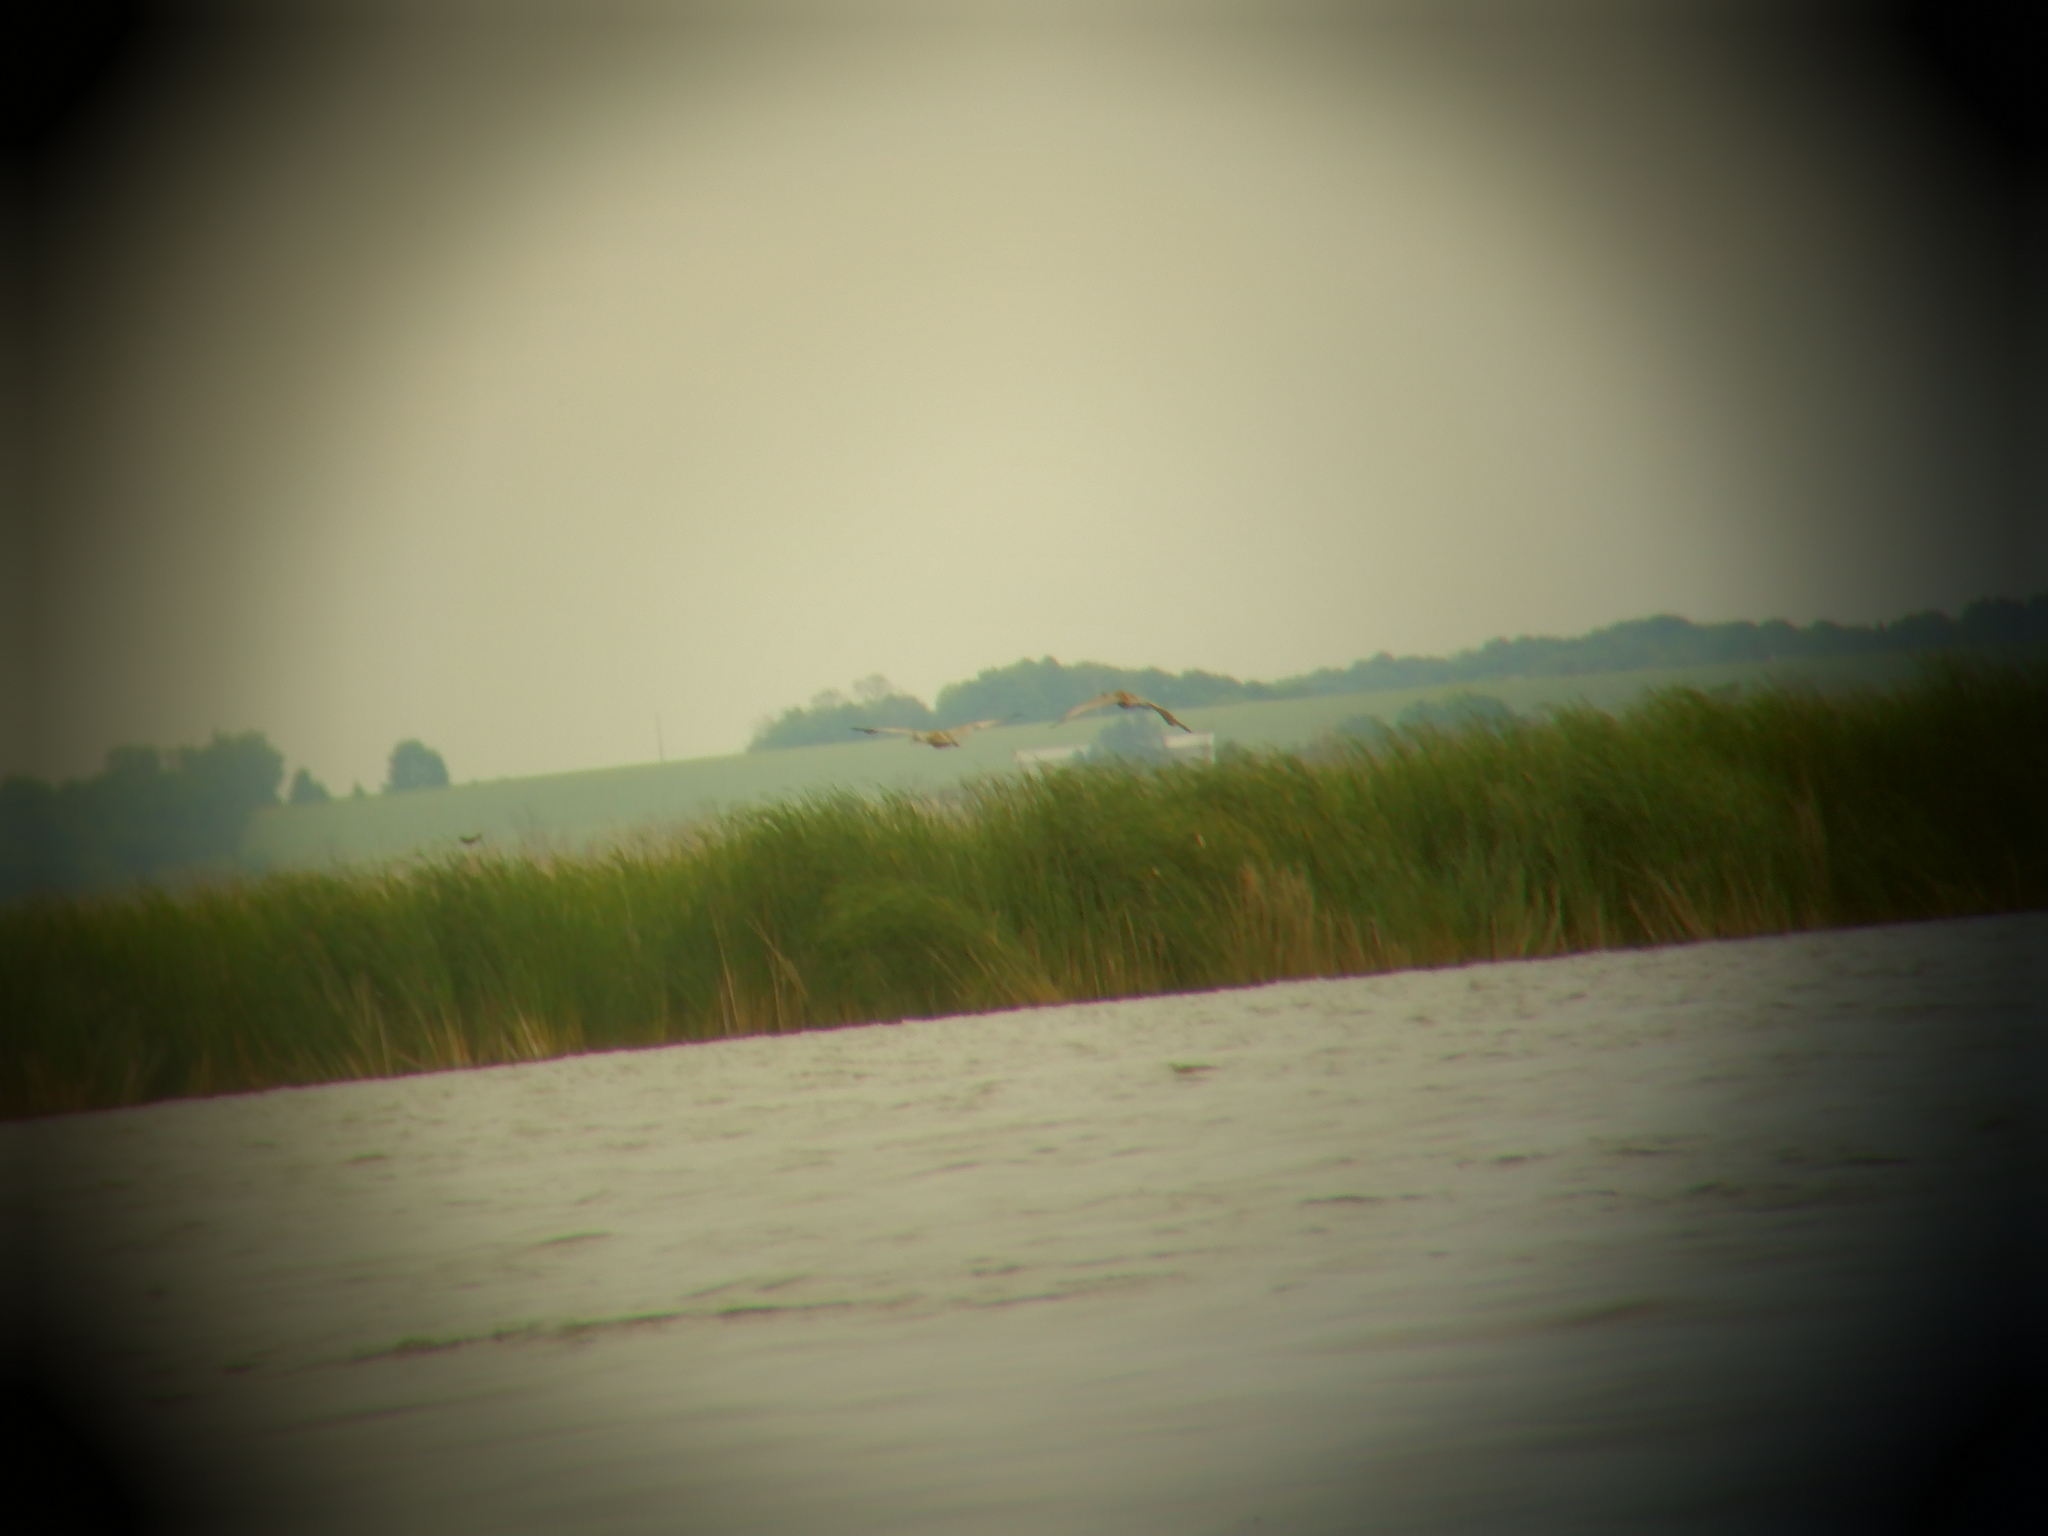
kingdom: Animalia
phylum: Chordata
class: Aves
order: Gruiformes
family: Gruidae
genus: Grus
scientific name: Grus canadensis
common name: Sandhill crane
